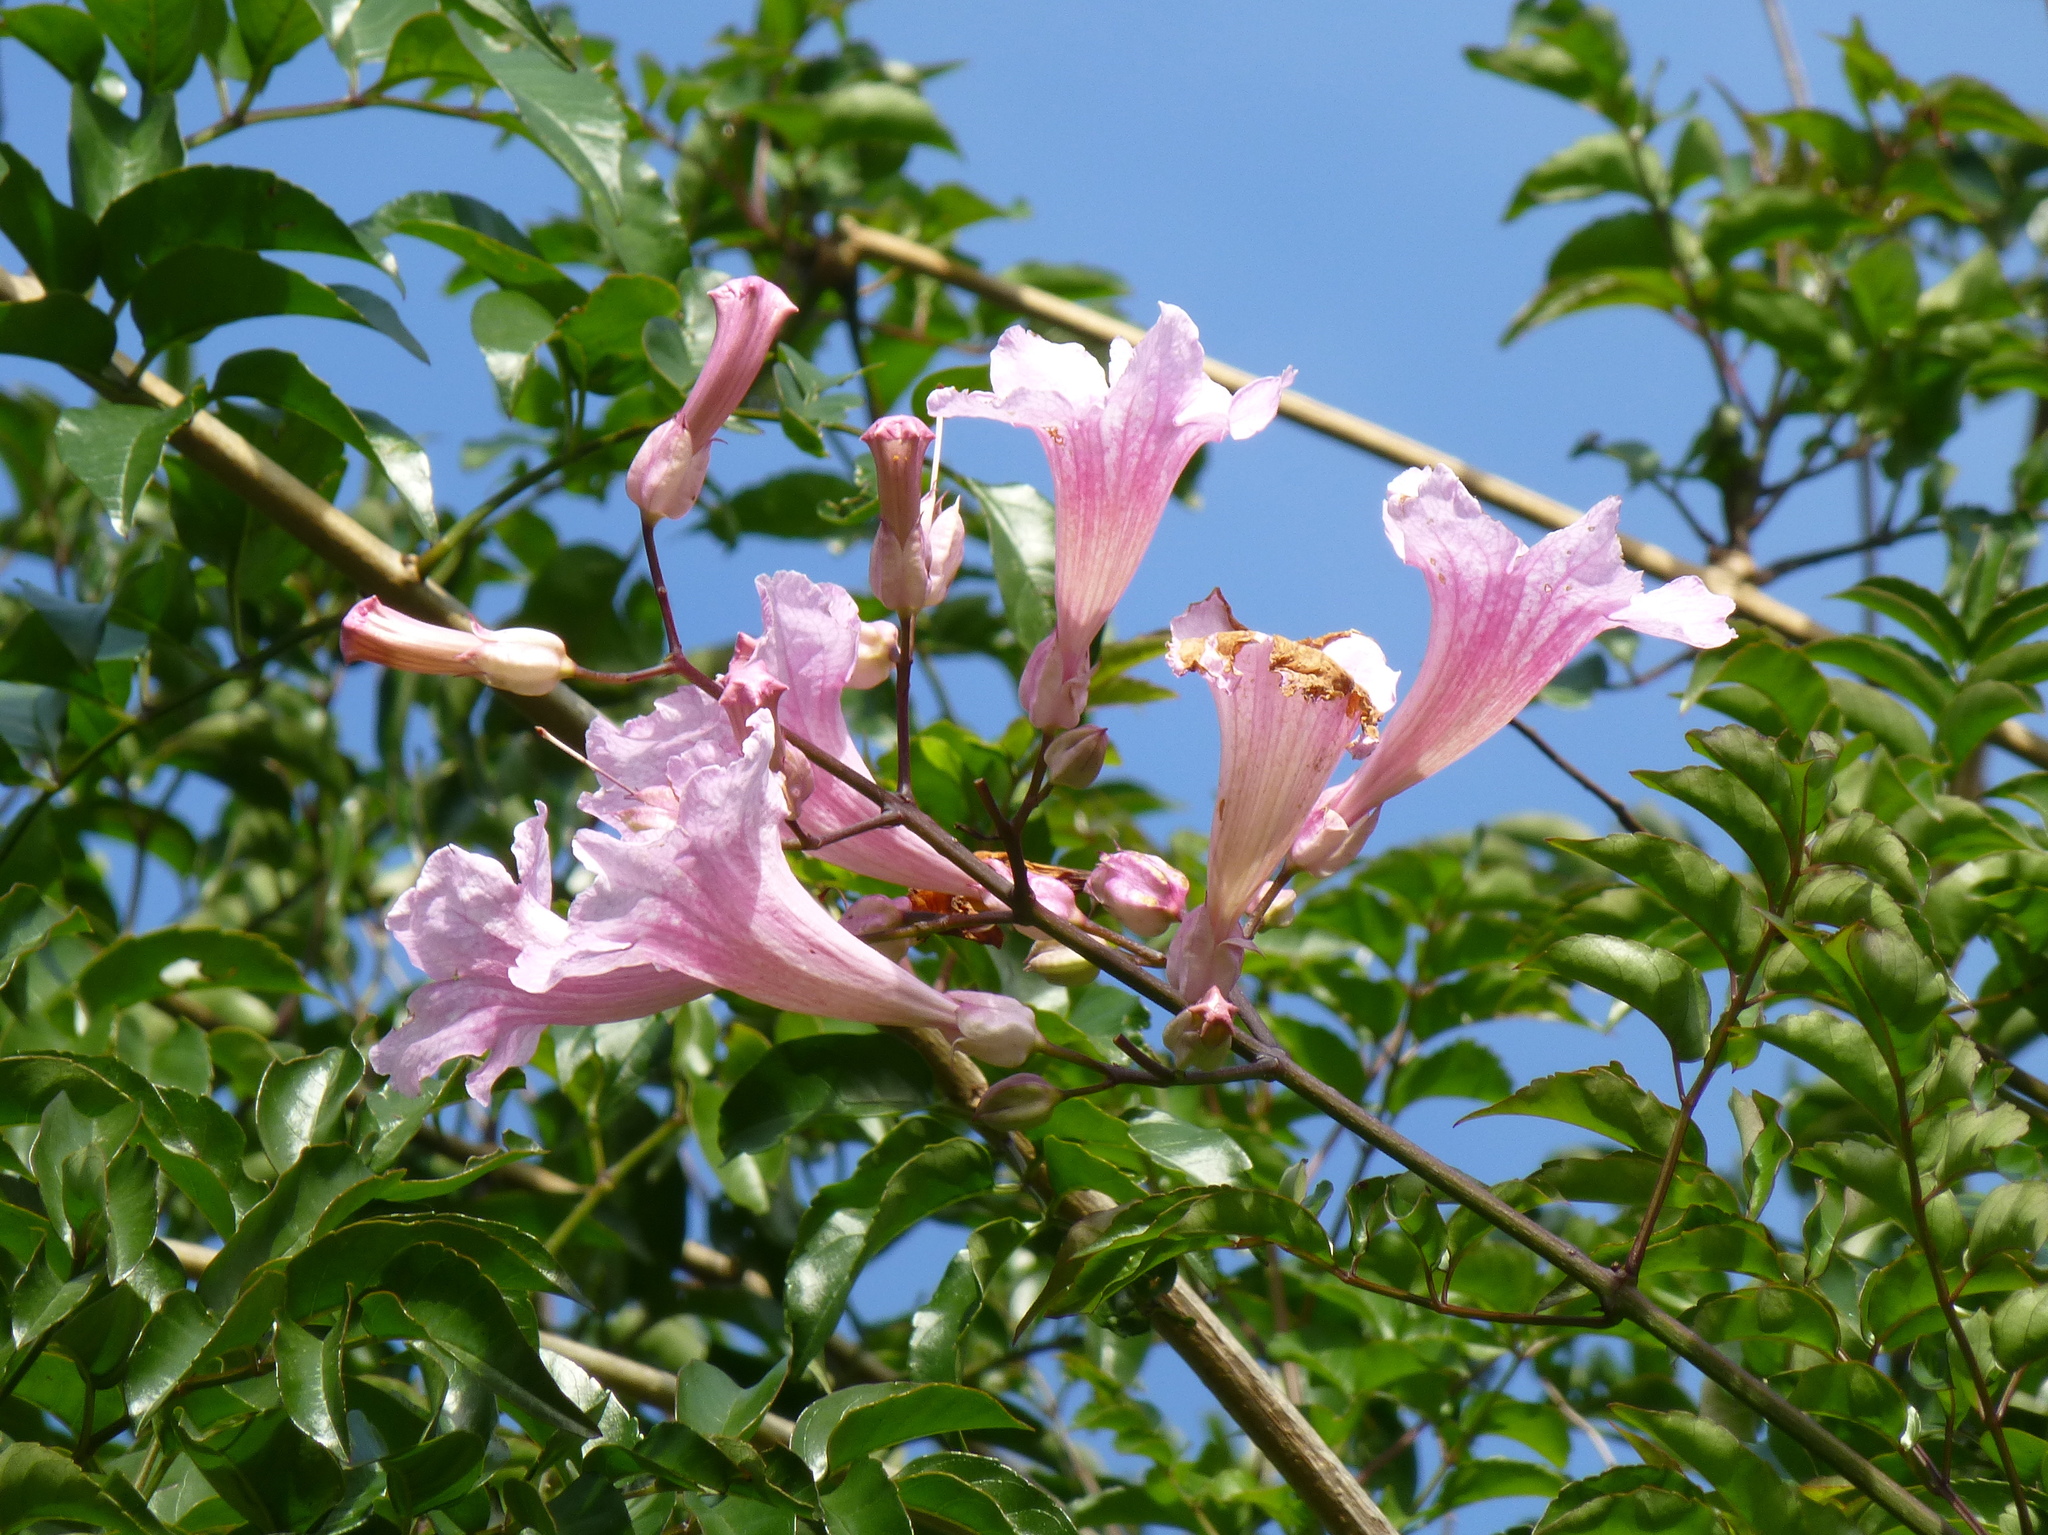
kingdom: Plantae
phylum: Tracheophyta
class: Magnoliopsida
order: Lamiales
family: Bignoniaceae
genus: Podranea
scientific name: Podranea ricasoliana
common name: Zimbabwe creeper
